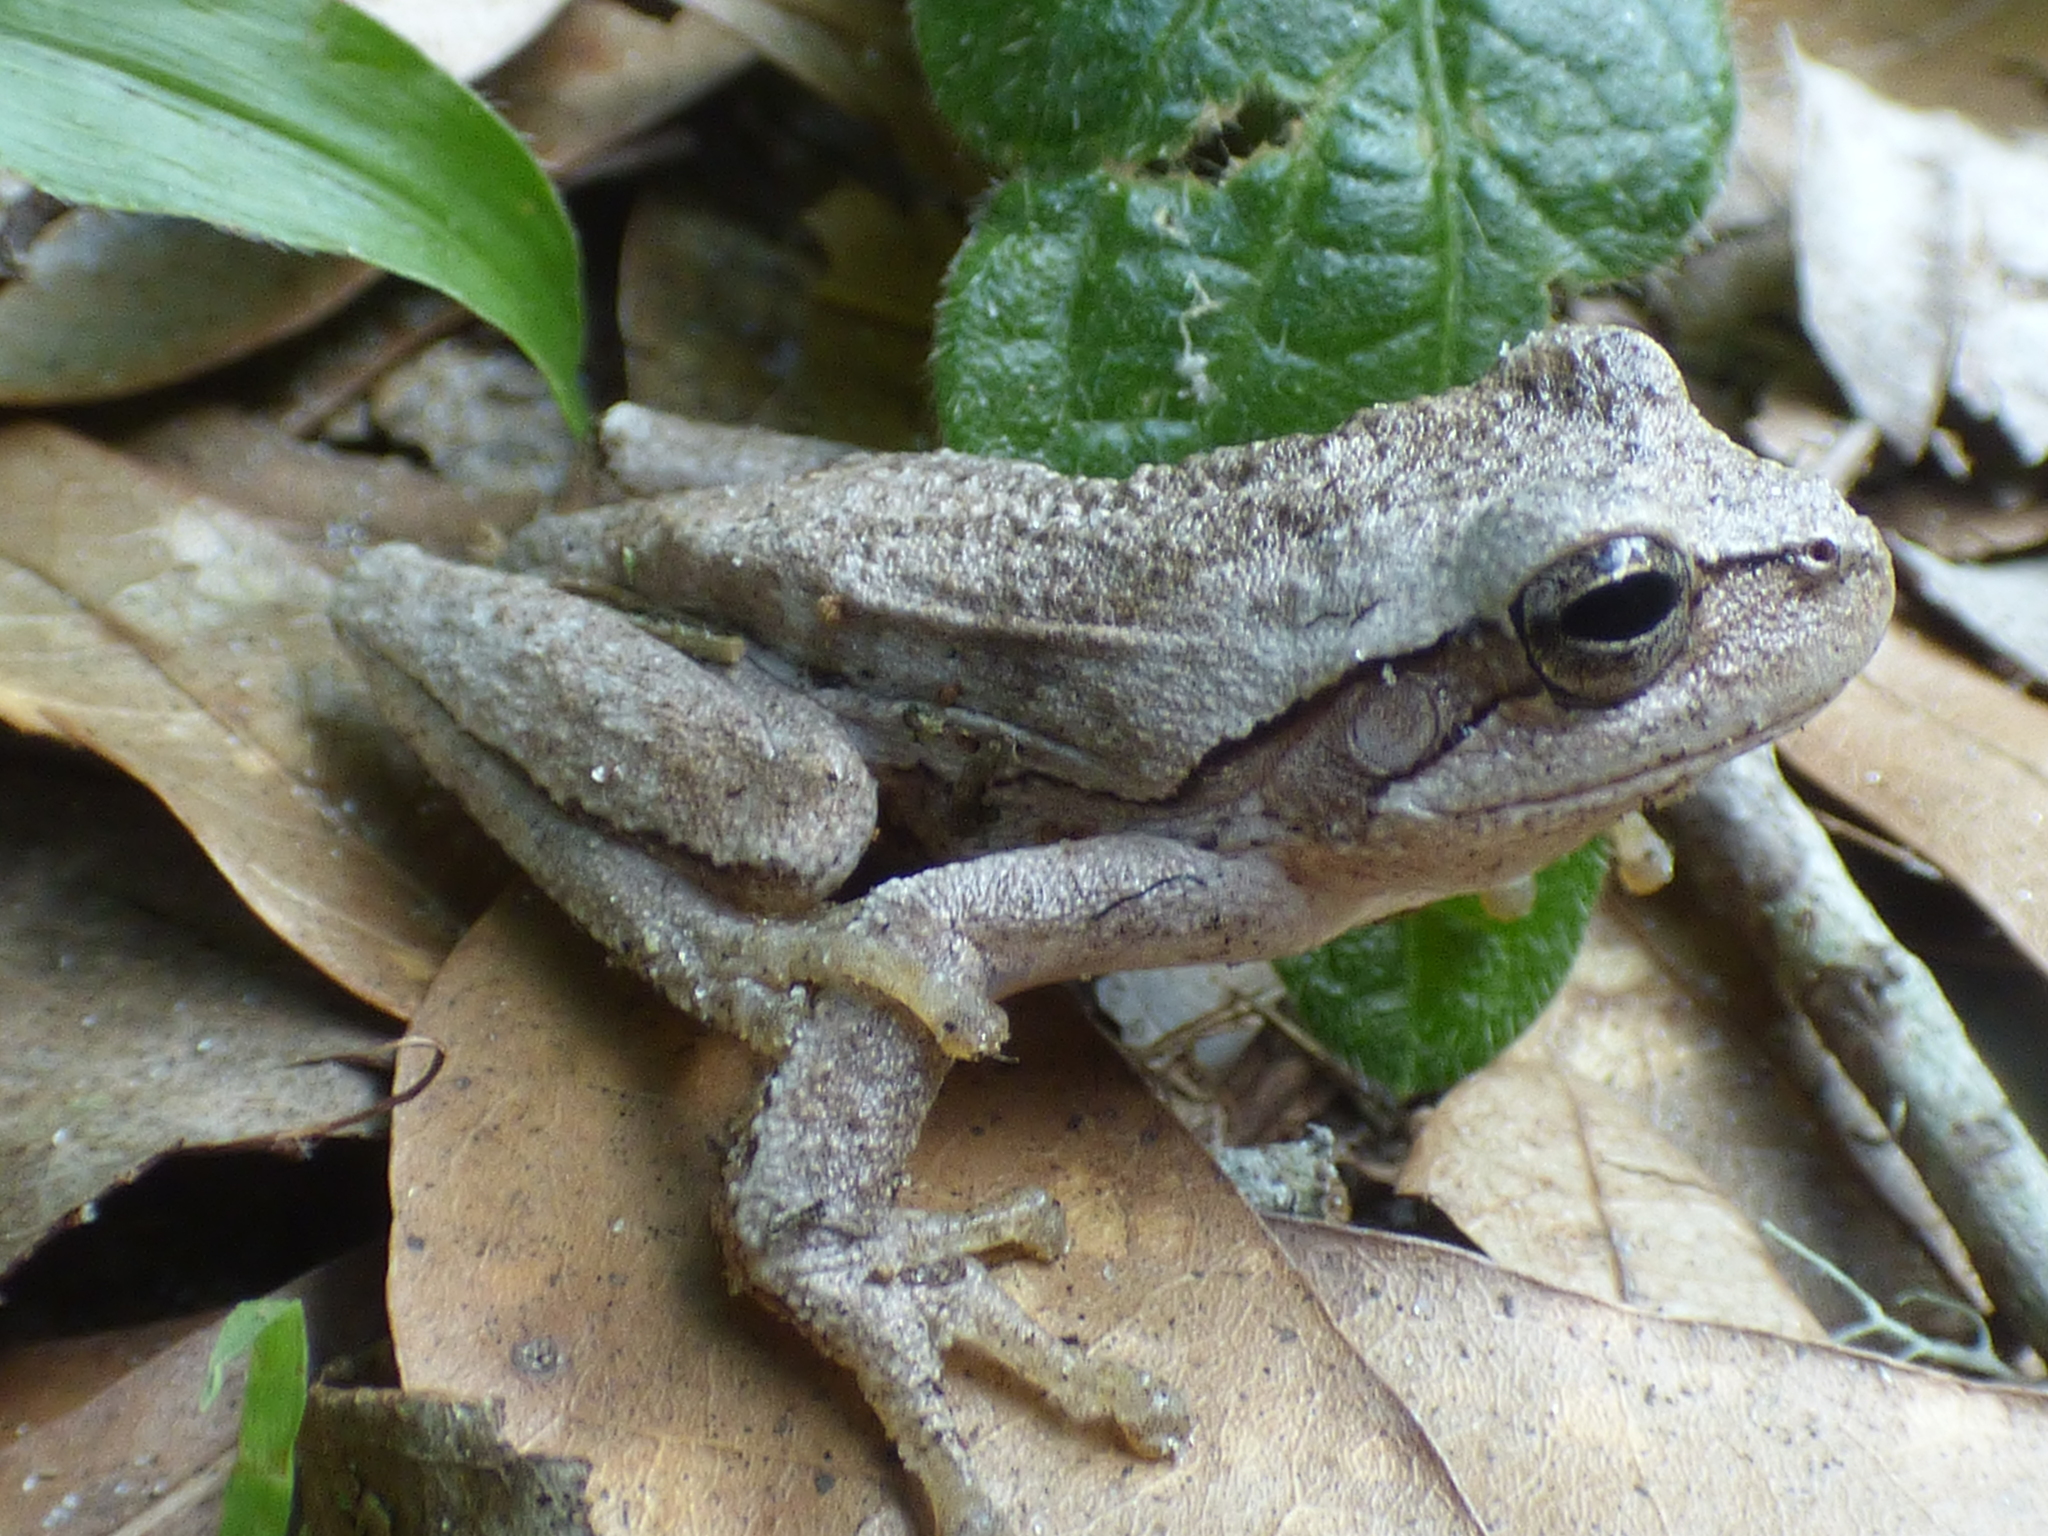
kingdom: Animalia
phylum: Chordata
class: Amphibia
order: Anura
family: Hylidae
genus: Hyla
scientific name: Hyla femoralis
